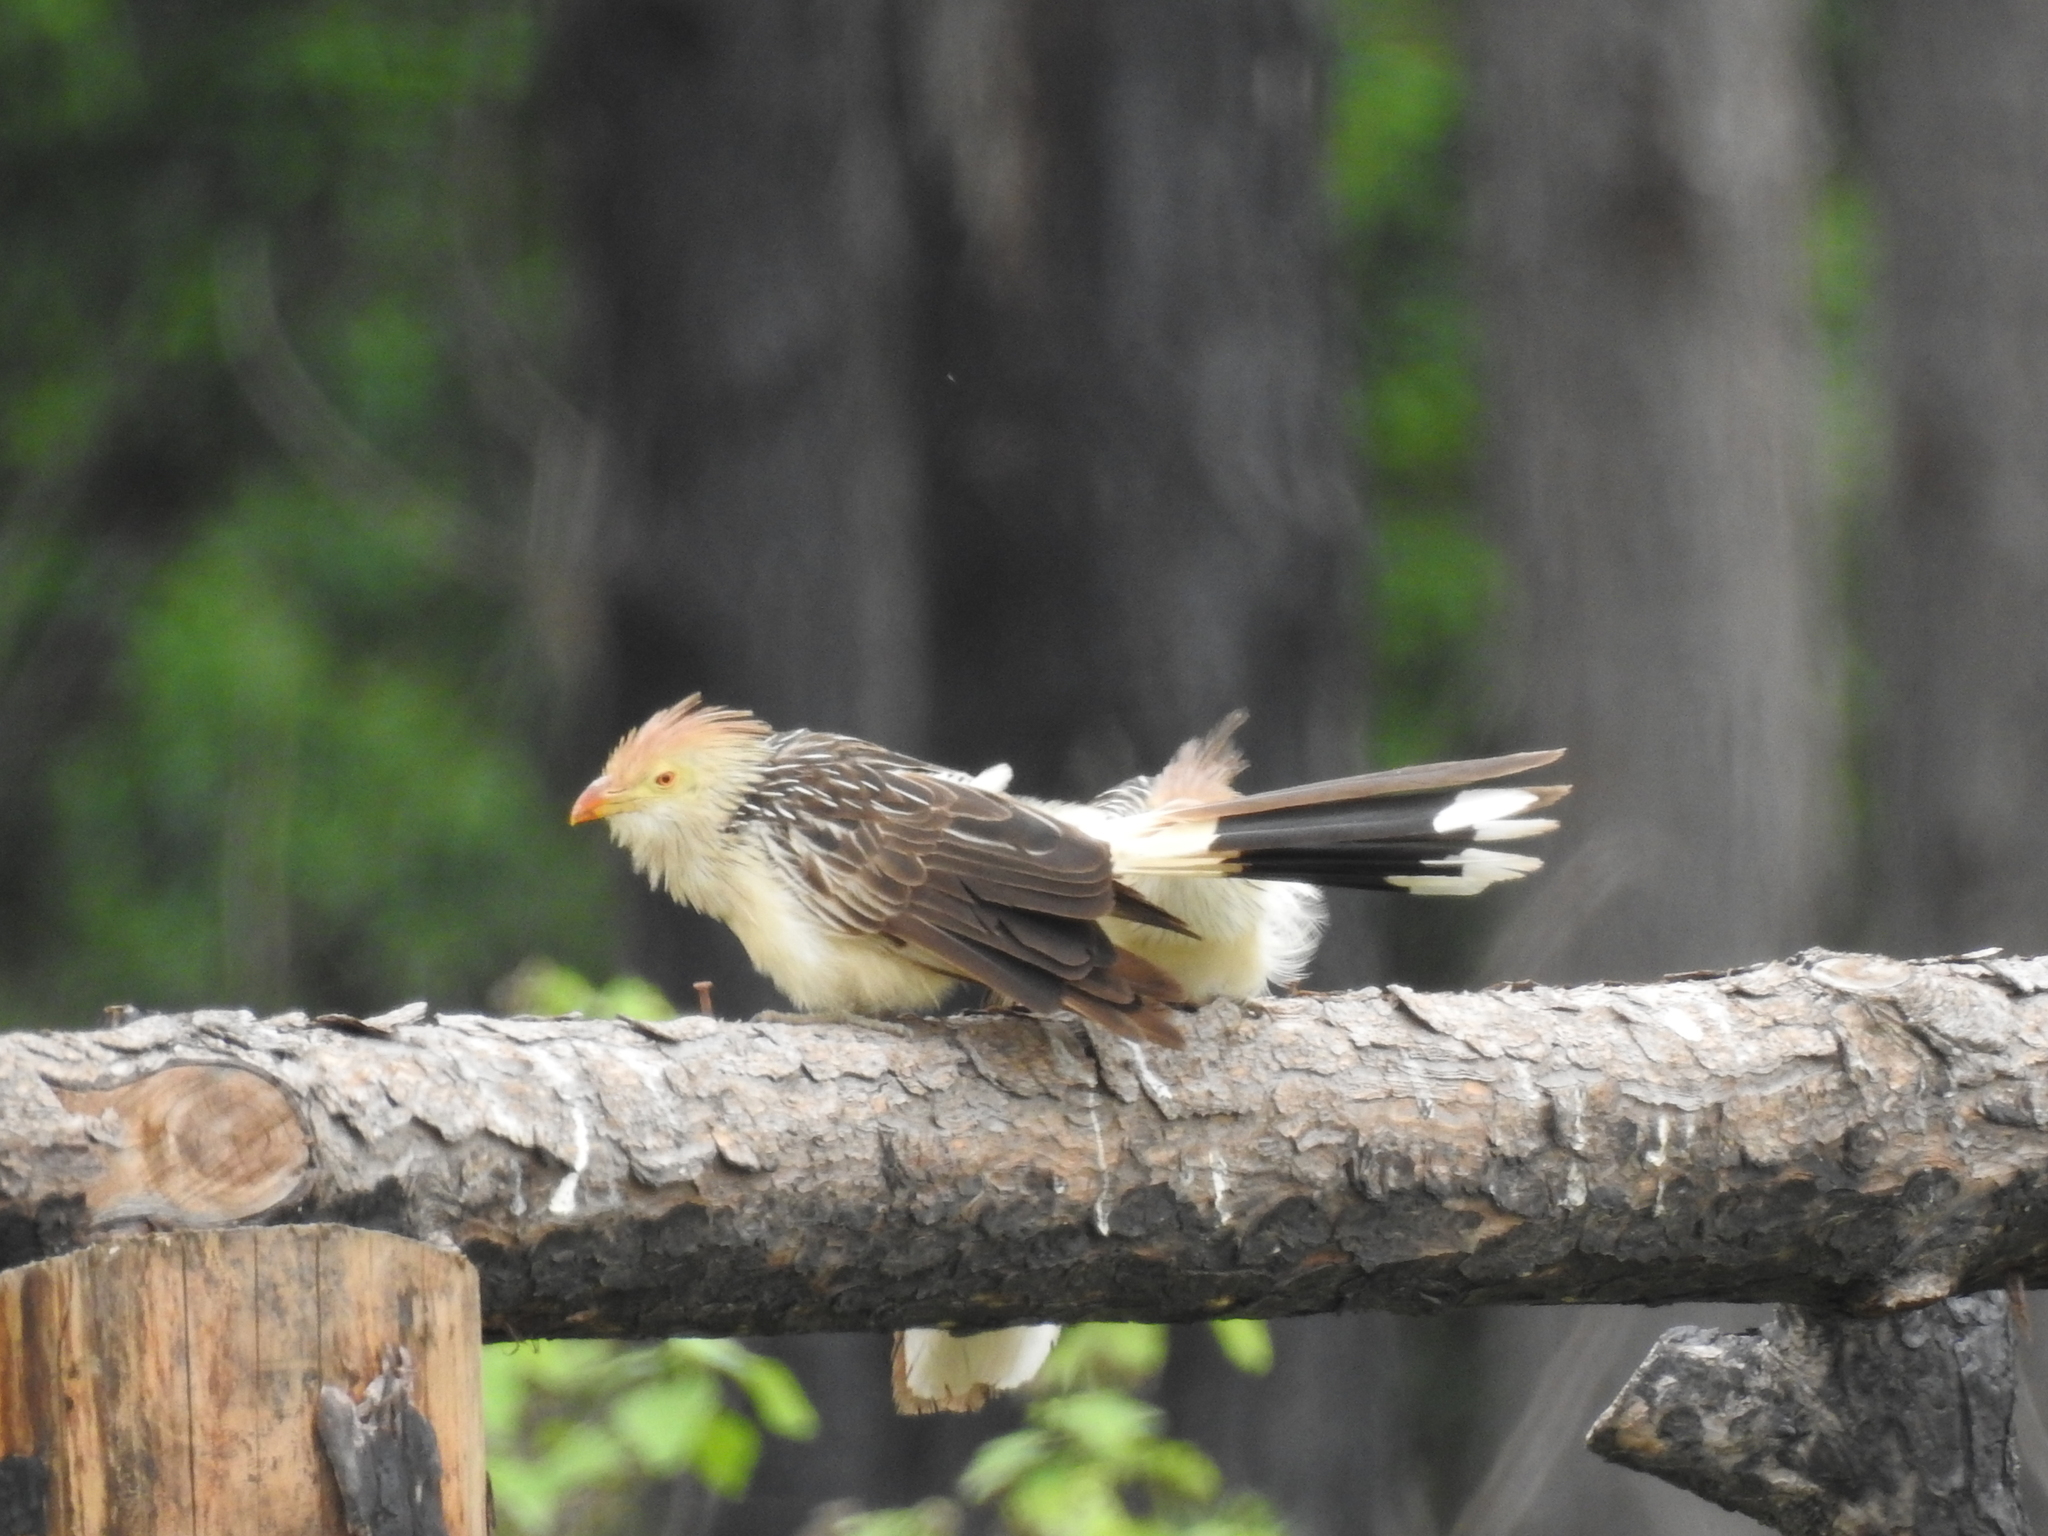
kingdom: Animalia
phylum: Chordata
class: Aves
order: Cuculiformes
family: Cuculidae
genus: Guira
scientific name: Guira guira
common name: Guira cuckoo
